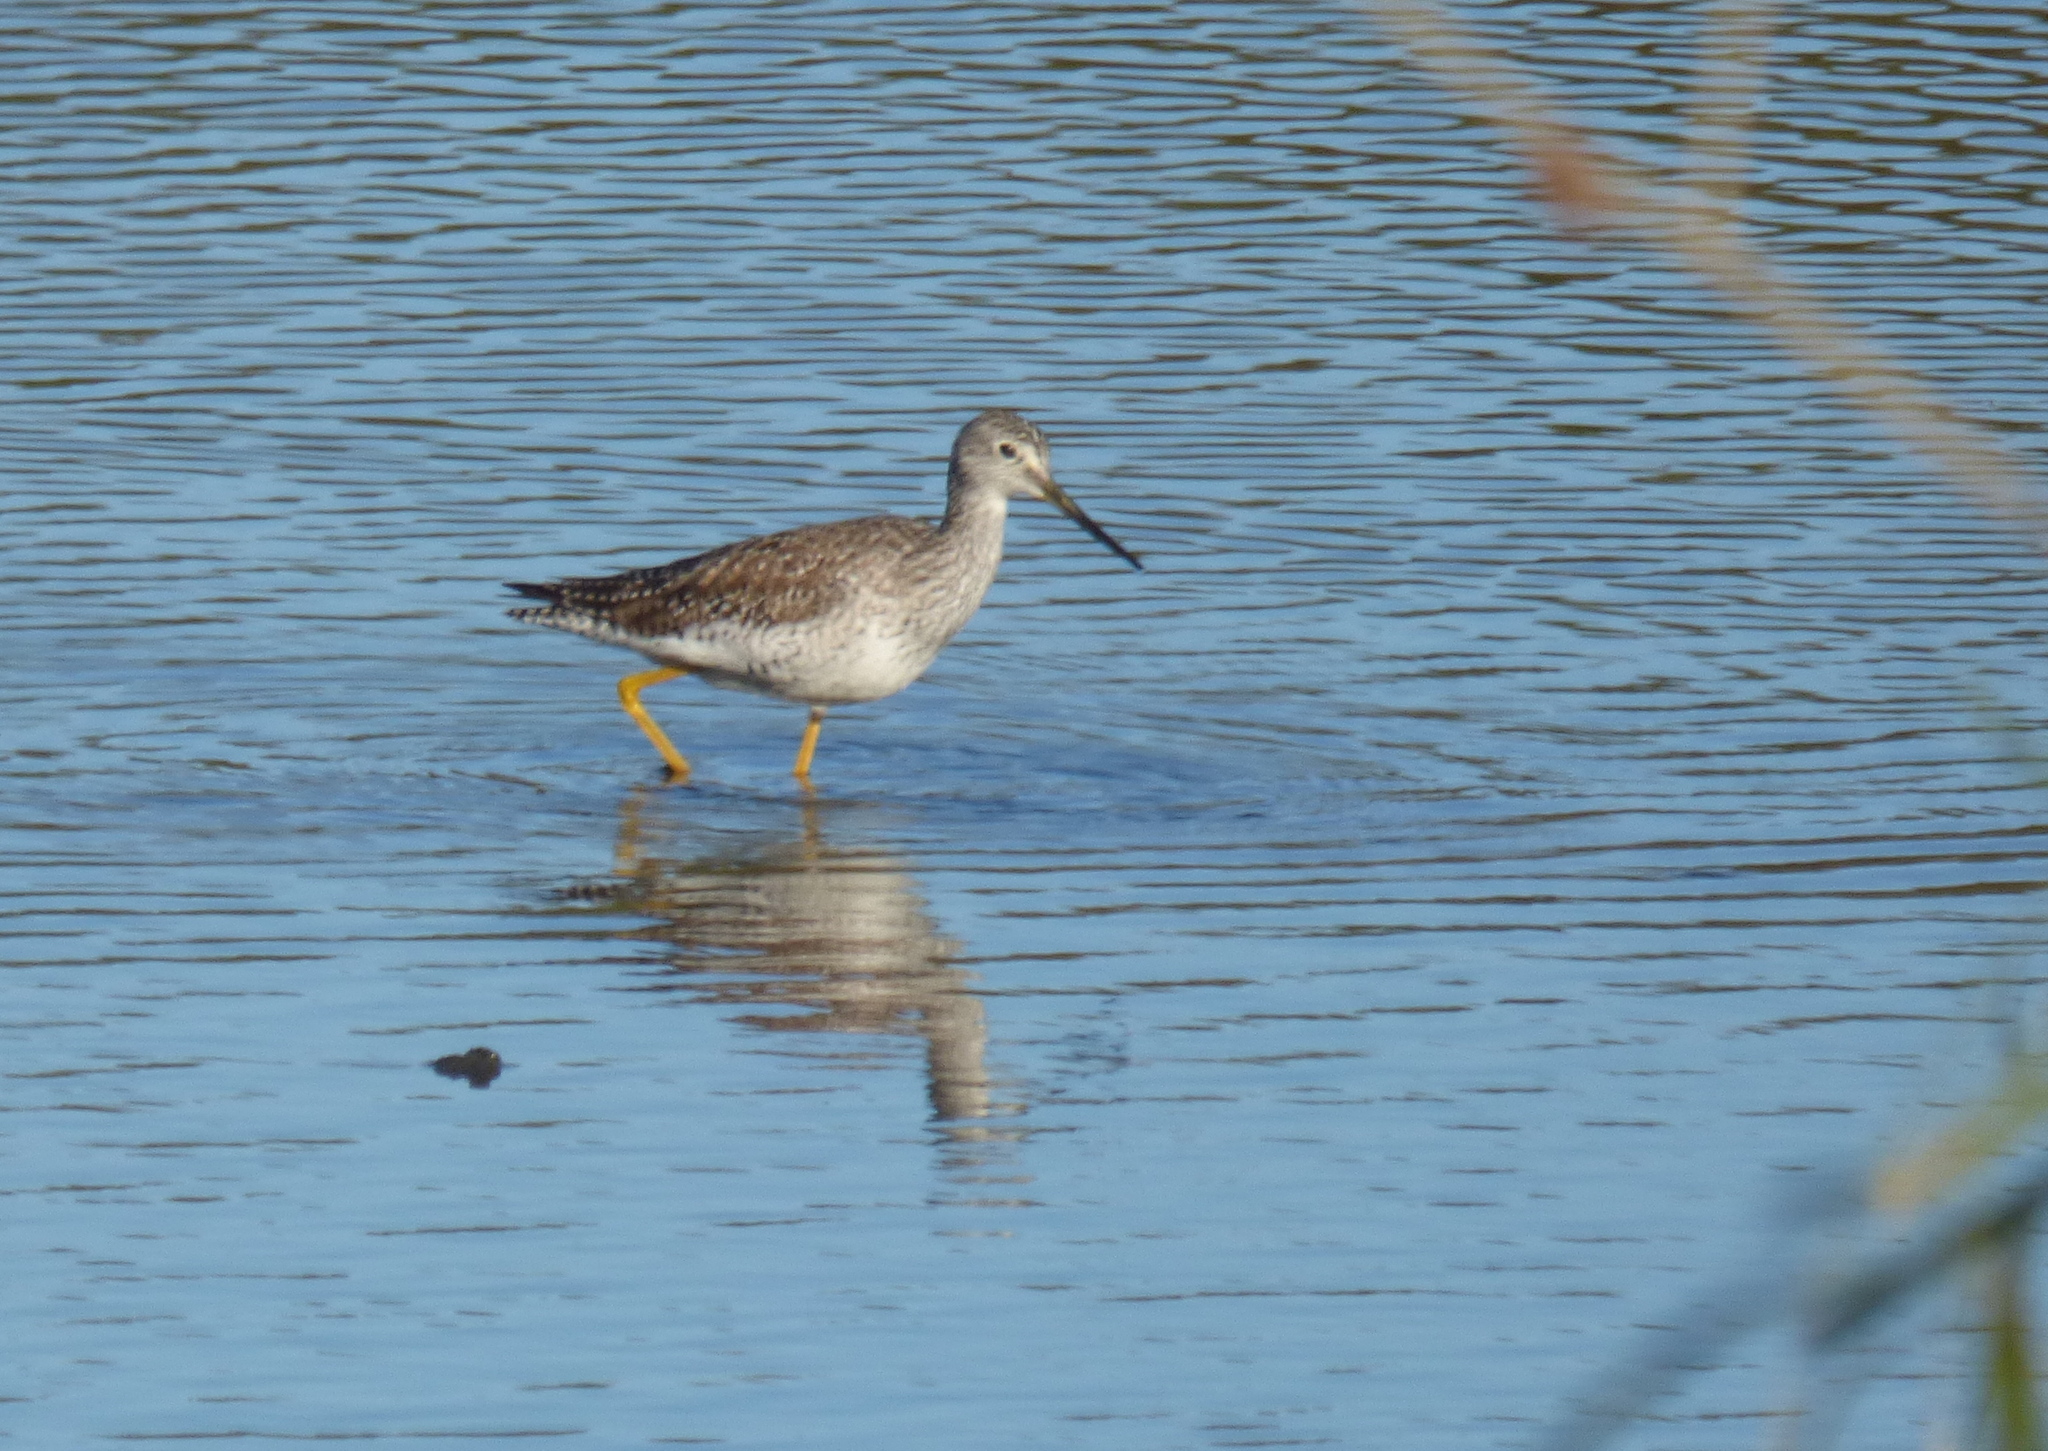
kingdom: Animalia
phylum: Chordata
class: Aves
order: Charadriiformes
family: Scolopacidae
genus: Tringa
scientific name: Tringa melanoleuca
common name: Greater yellowlegs
